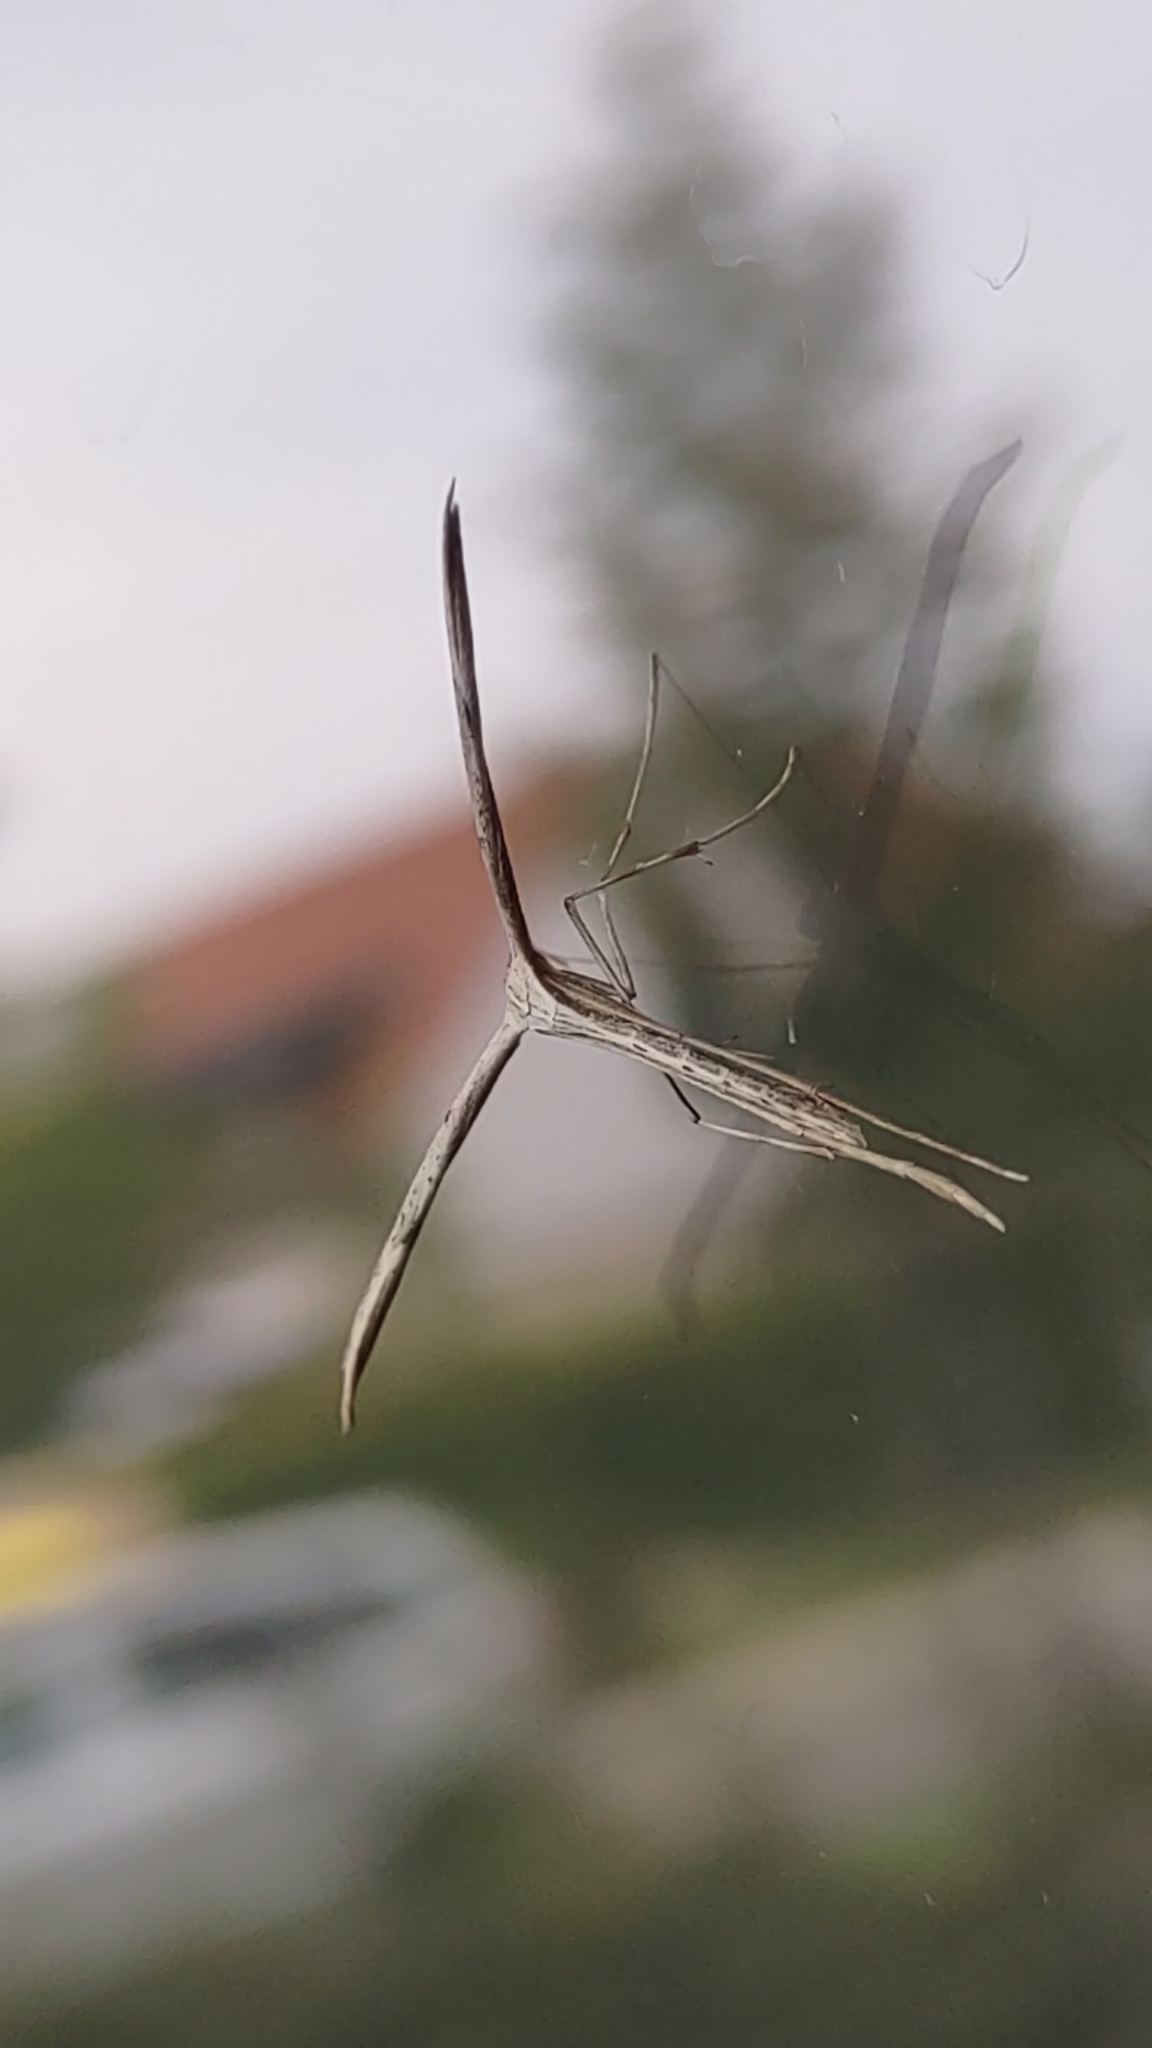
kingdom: Animalia
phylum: Arthropoda
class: Insecta
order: Lepidoptera
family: Pterophoridae
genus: Emmelina
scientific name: Emmelina monodactyla
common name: Common plume
